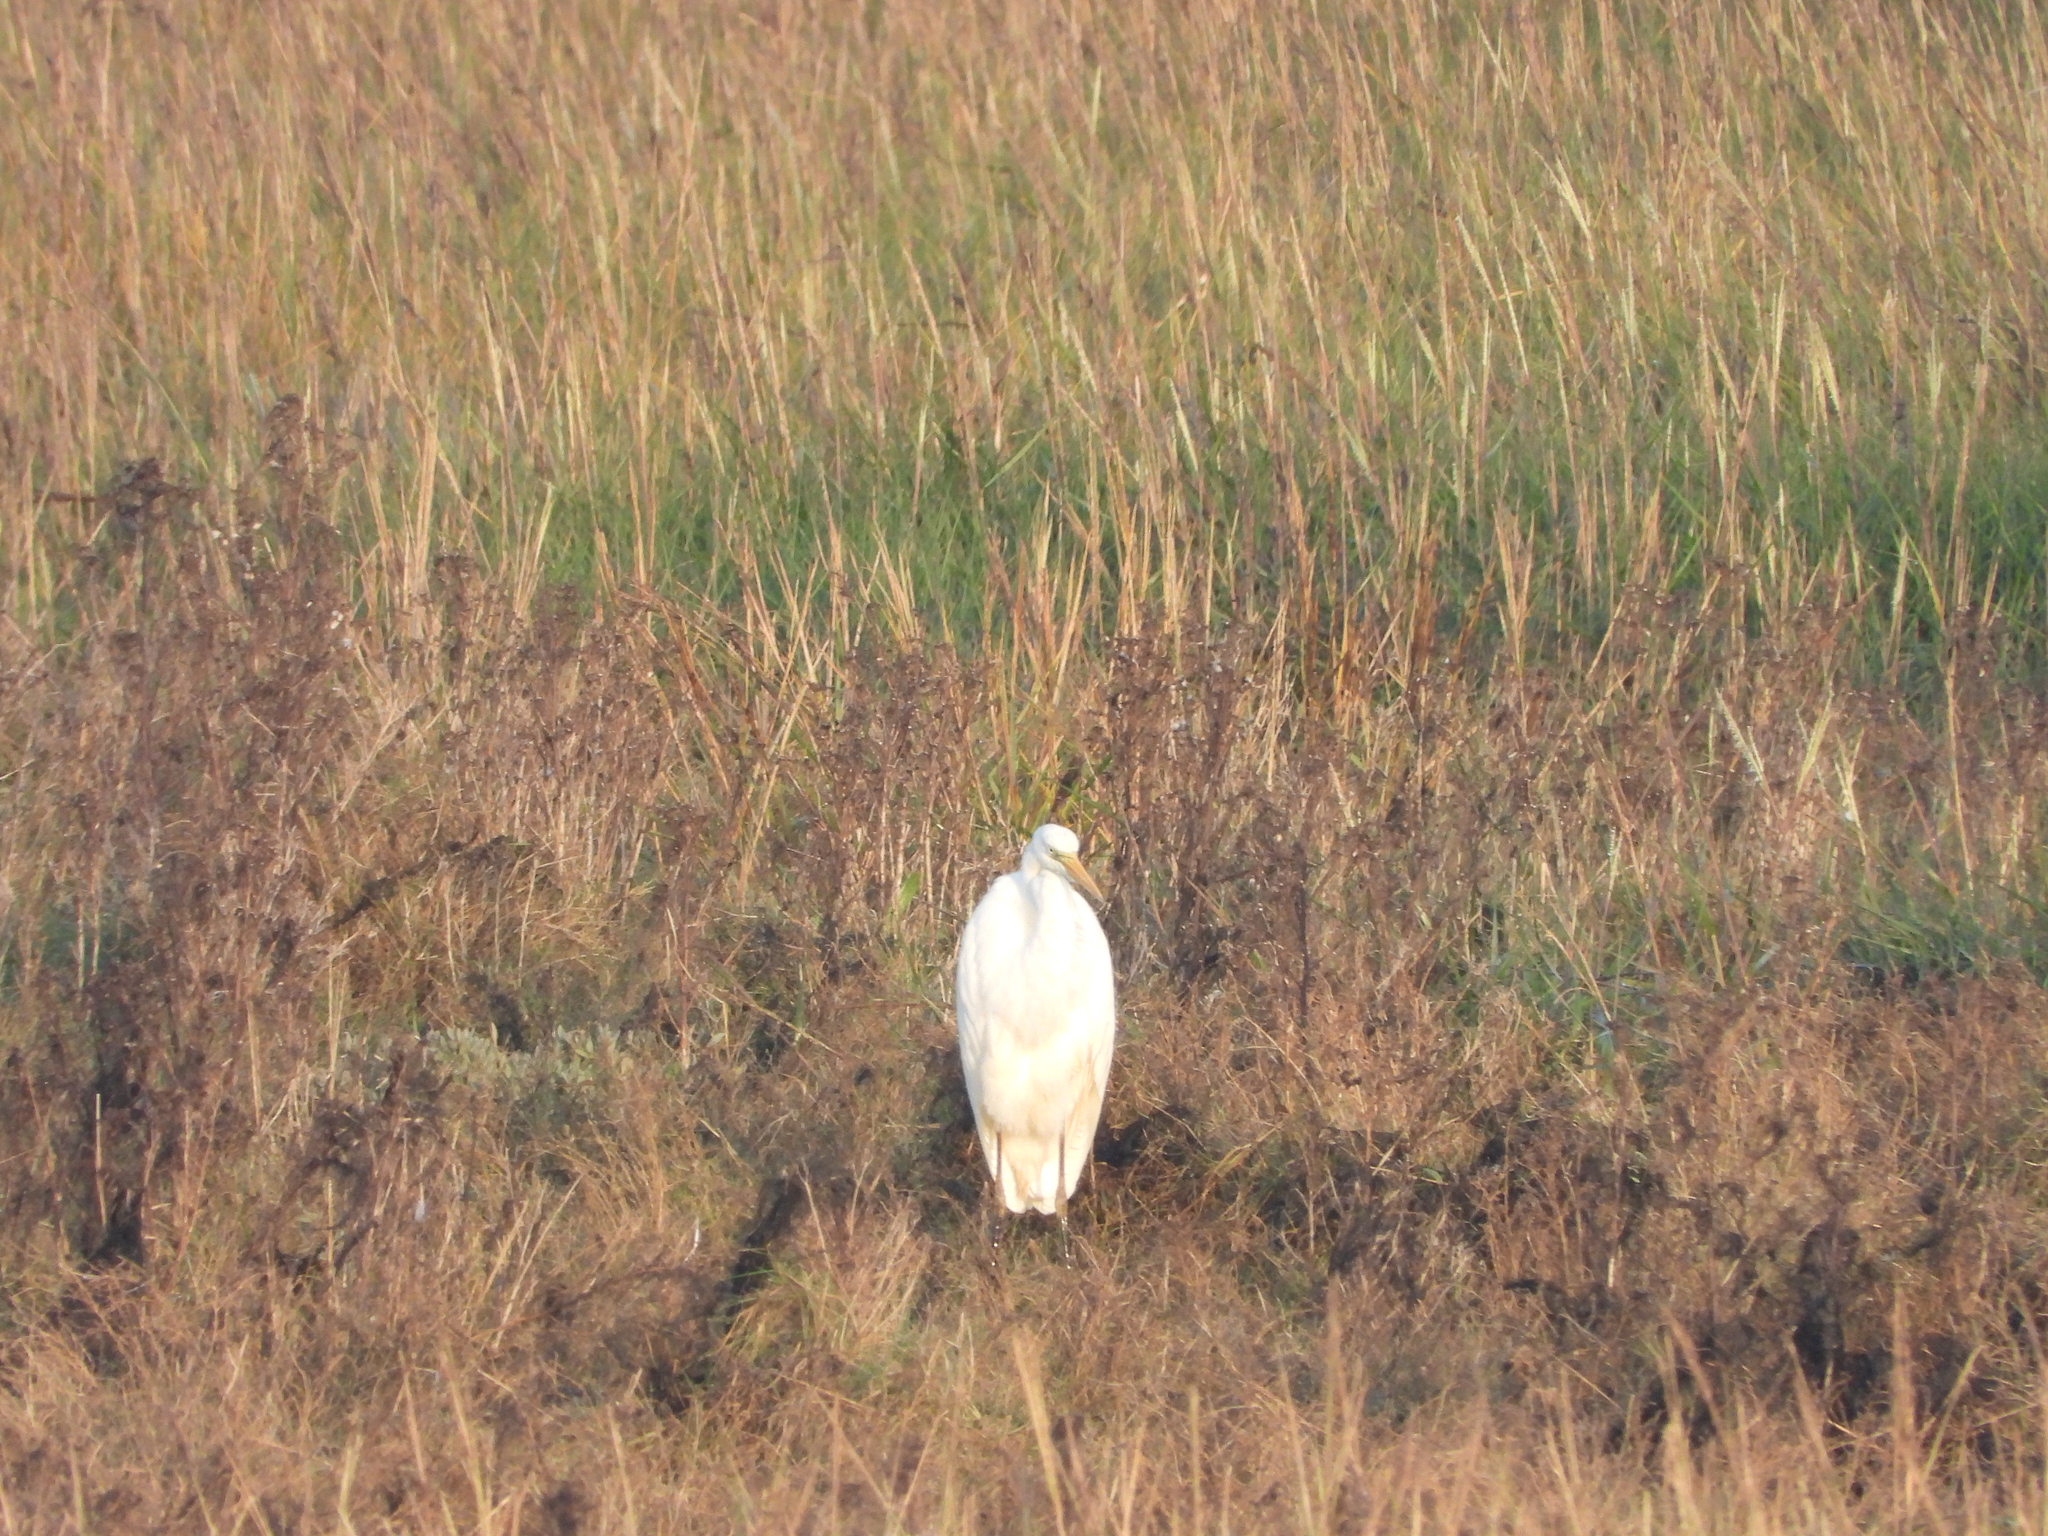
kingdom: Animalia
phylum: Chordata
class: Aves
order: Pelecaniformes
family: Ardeidae
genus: Ardea
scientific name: Ardea alba
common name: Great egret
